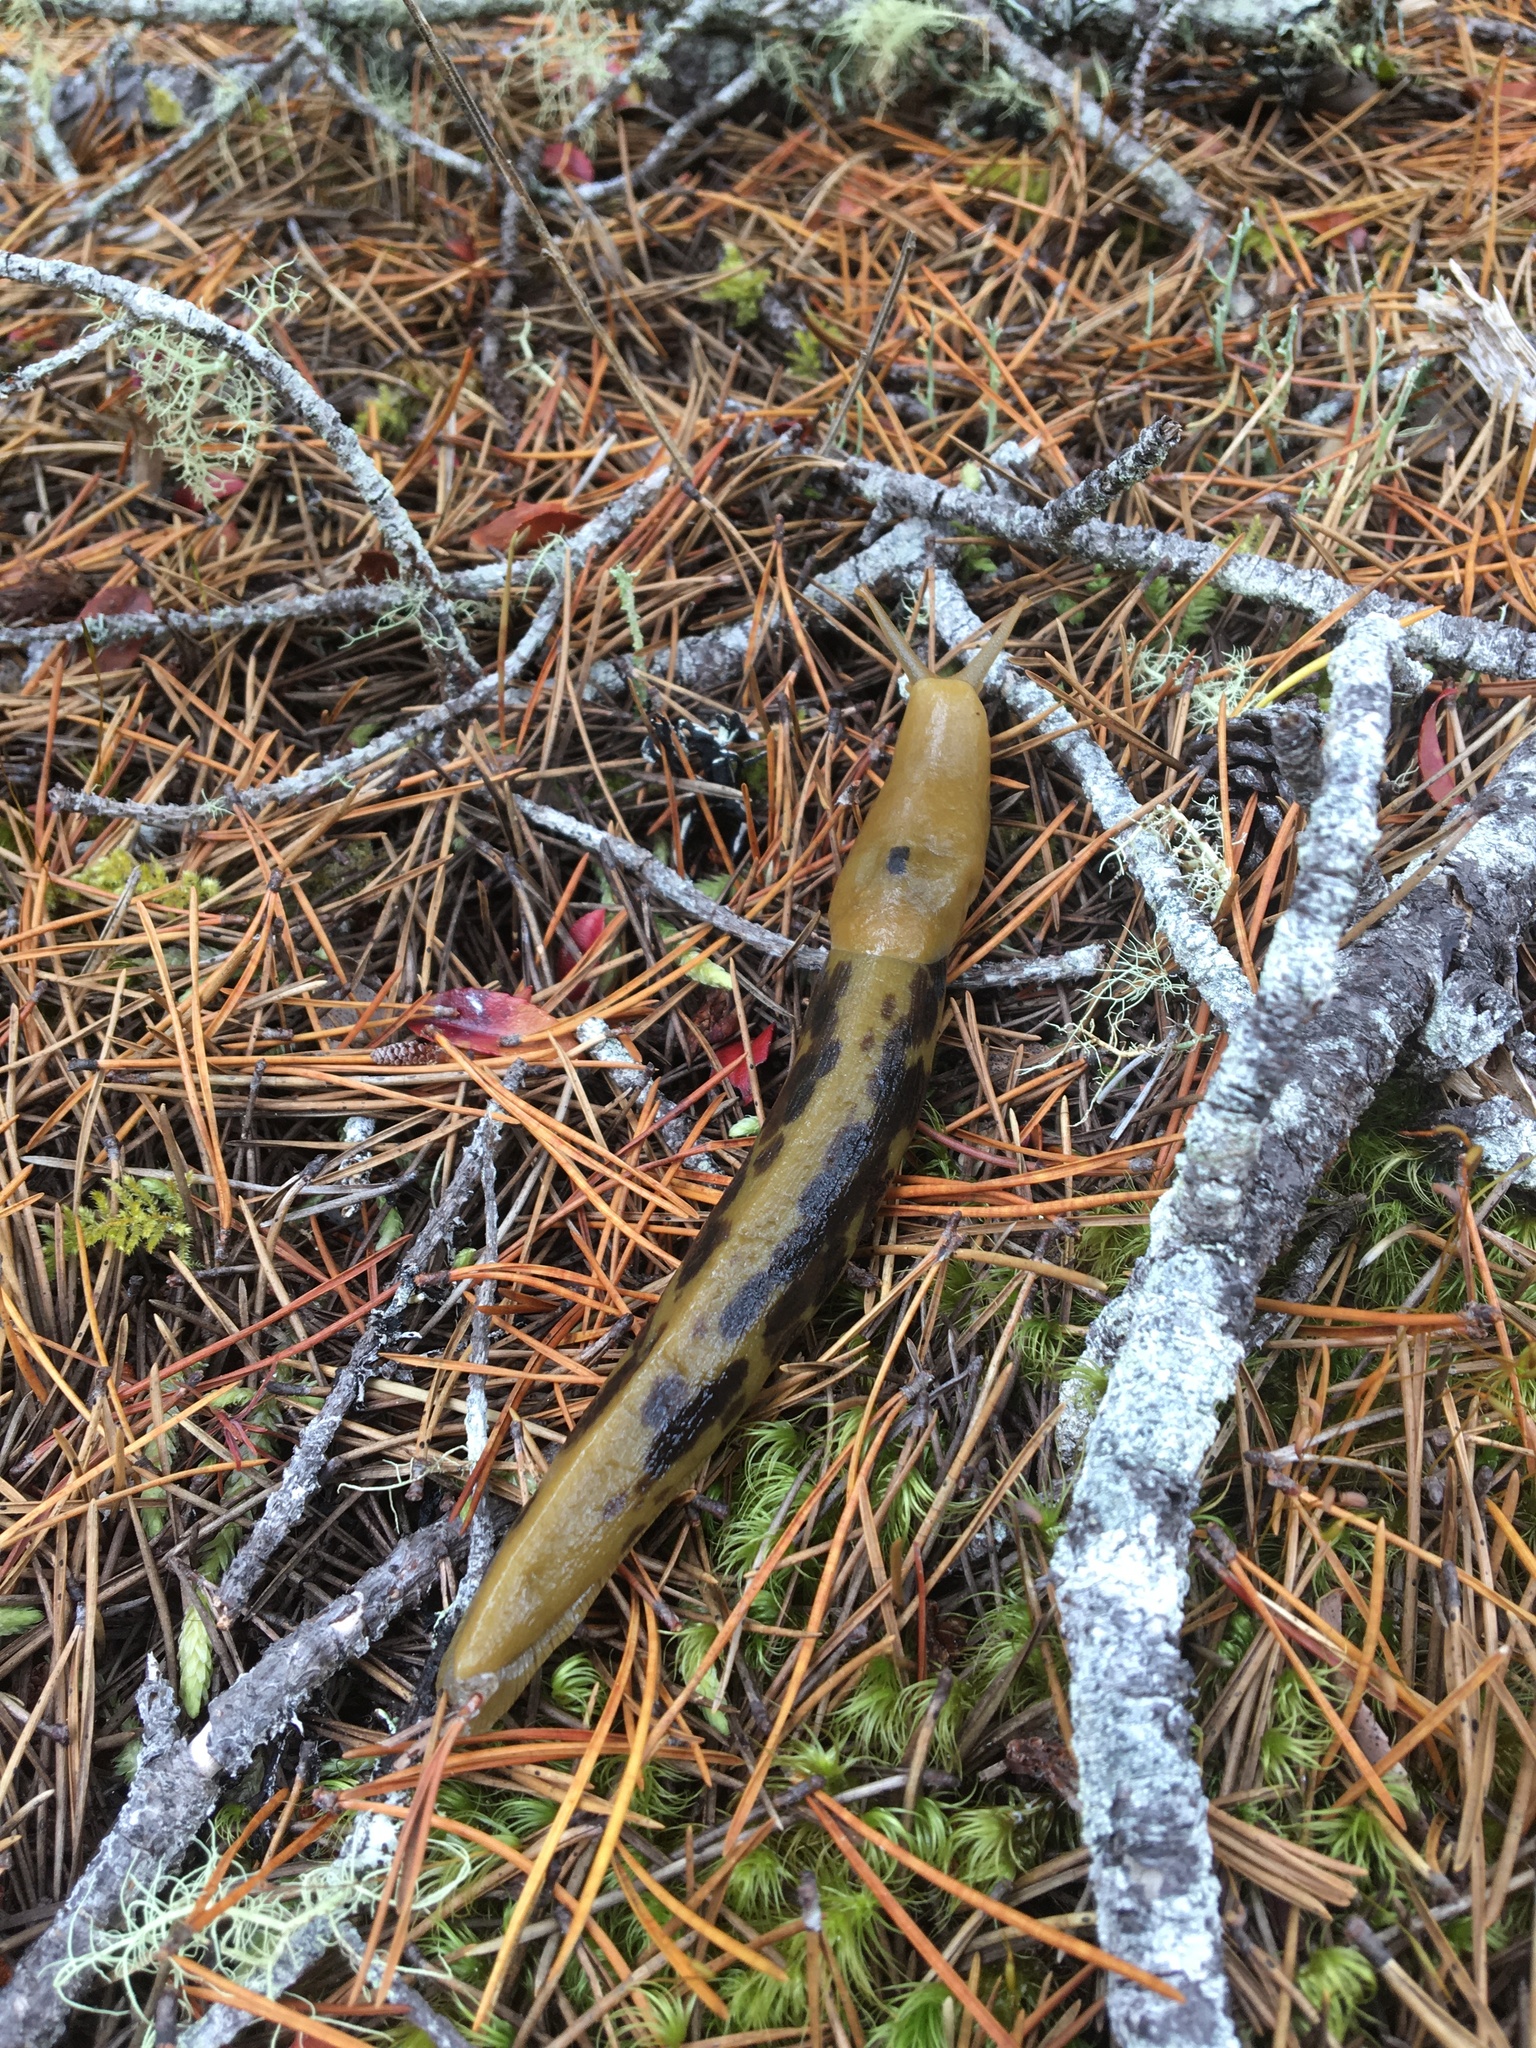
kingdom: Animalia
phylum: Mollusca
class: Gastropoda
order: Stylommatophora
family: Ariolimacidae
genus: Ariolimax
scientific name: Ariolimax columbianus
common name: Pacific banana slug
